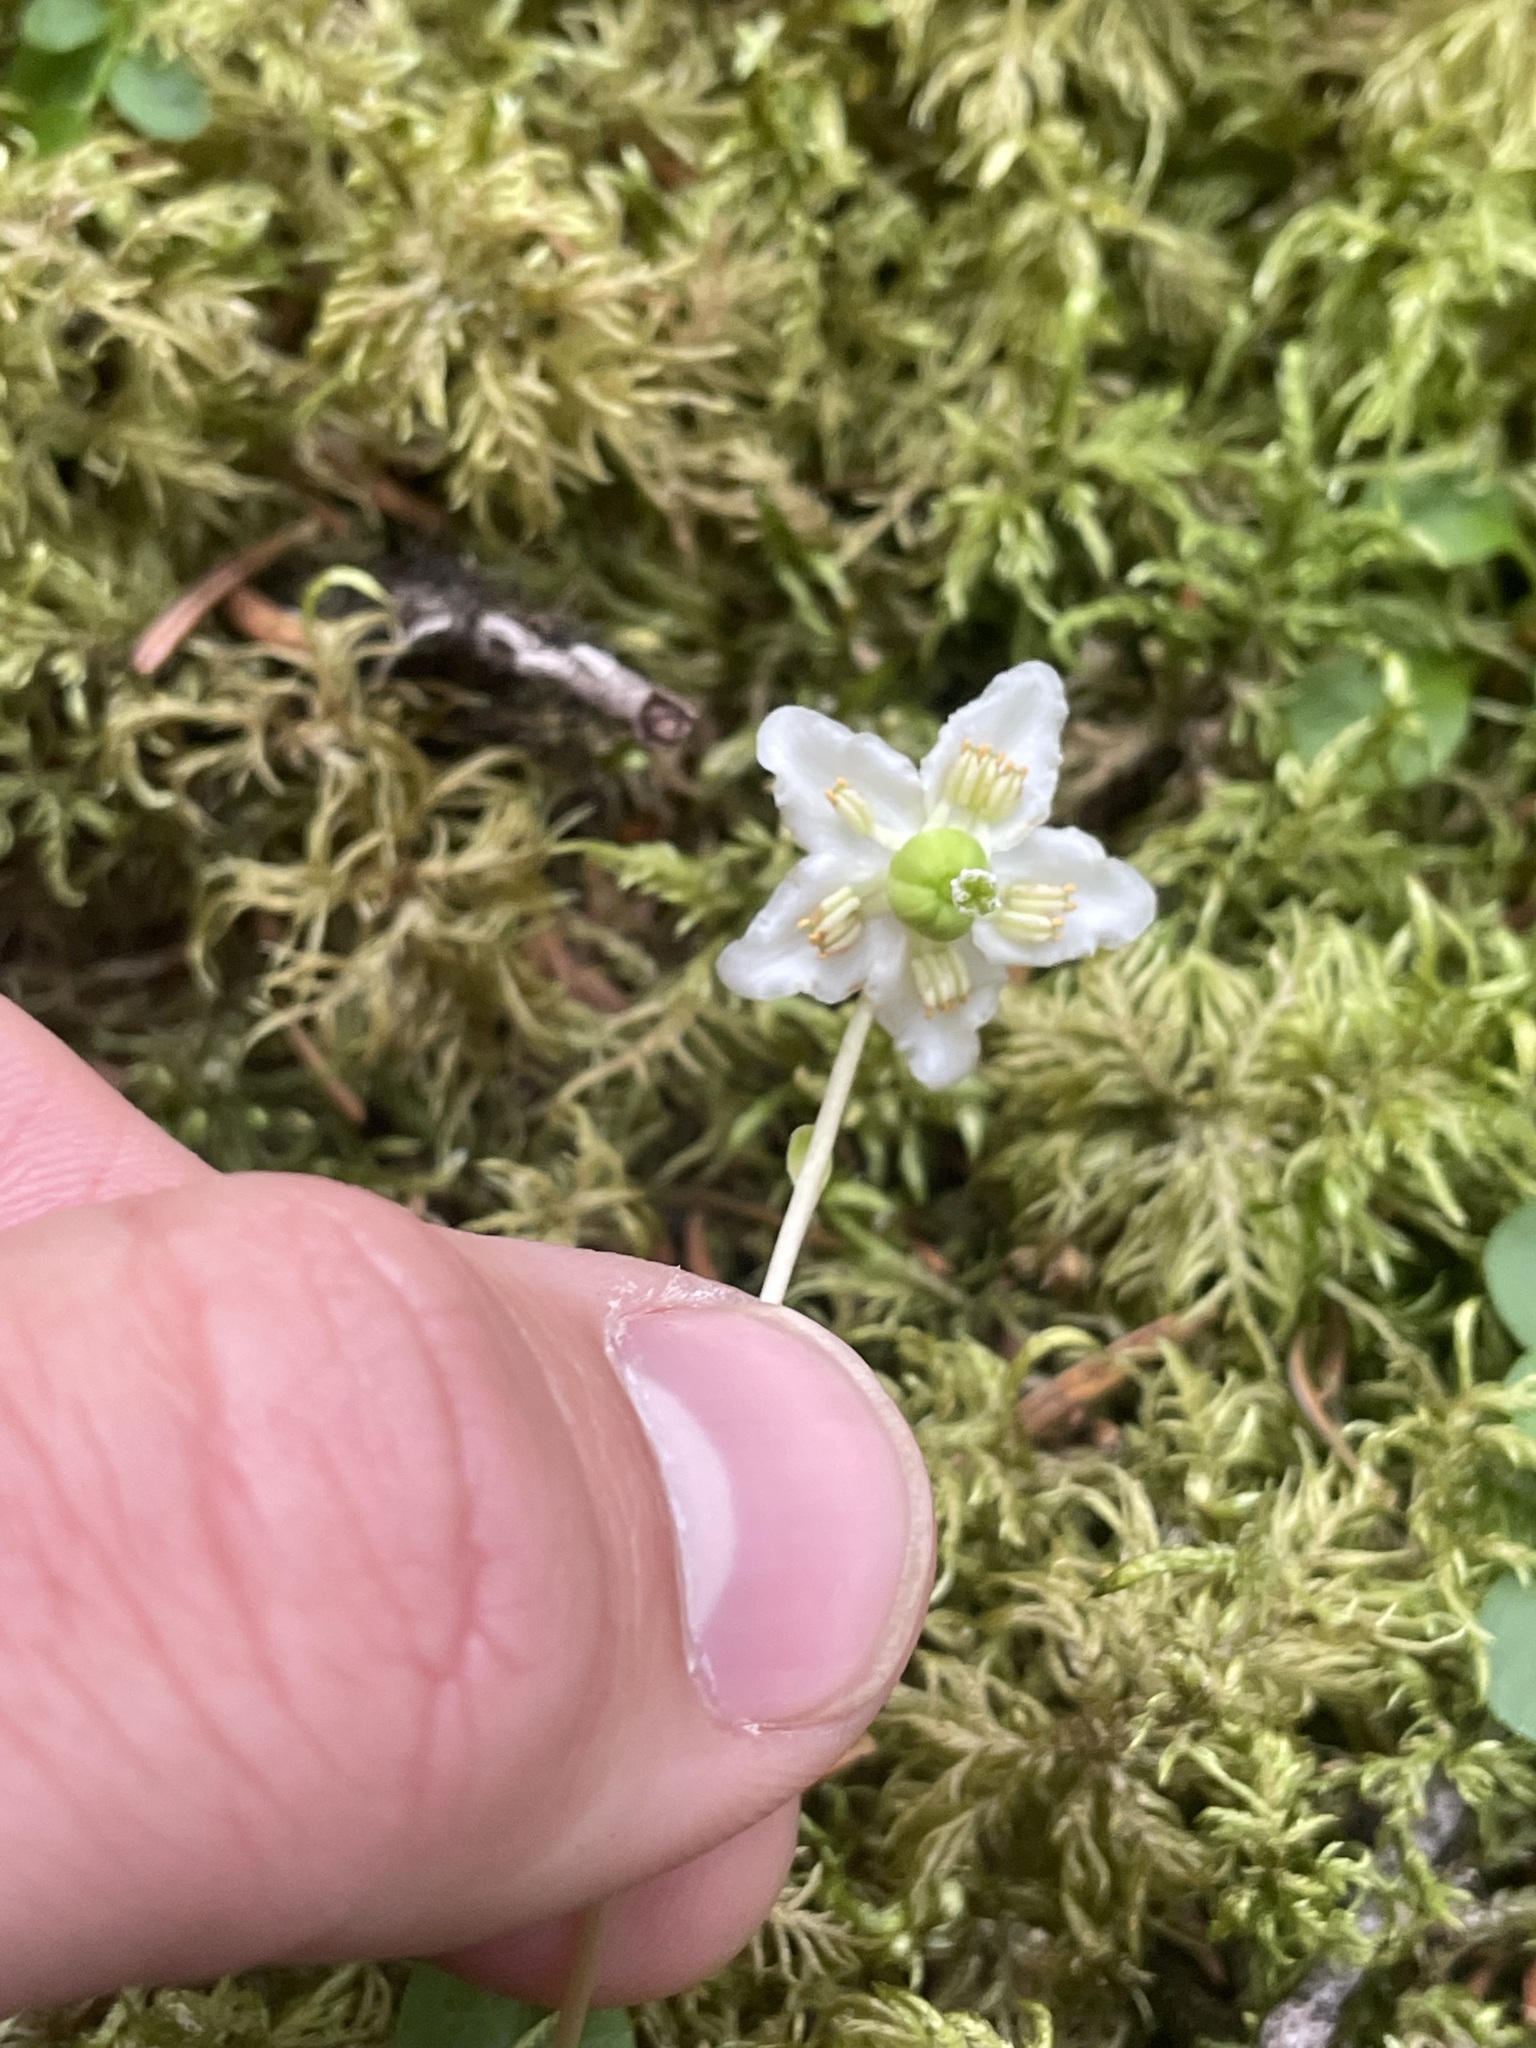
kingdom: Plantae
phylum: Tracheophyta
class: Magnoliopsida
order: Ericales
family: Ericaceae
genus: Moneses
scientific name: Moneses uniflora
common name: One-flowered wintergreen
